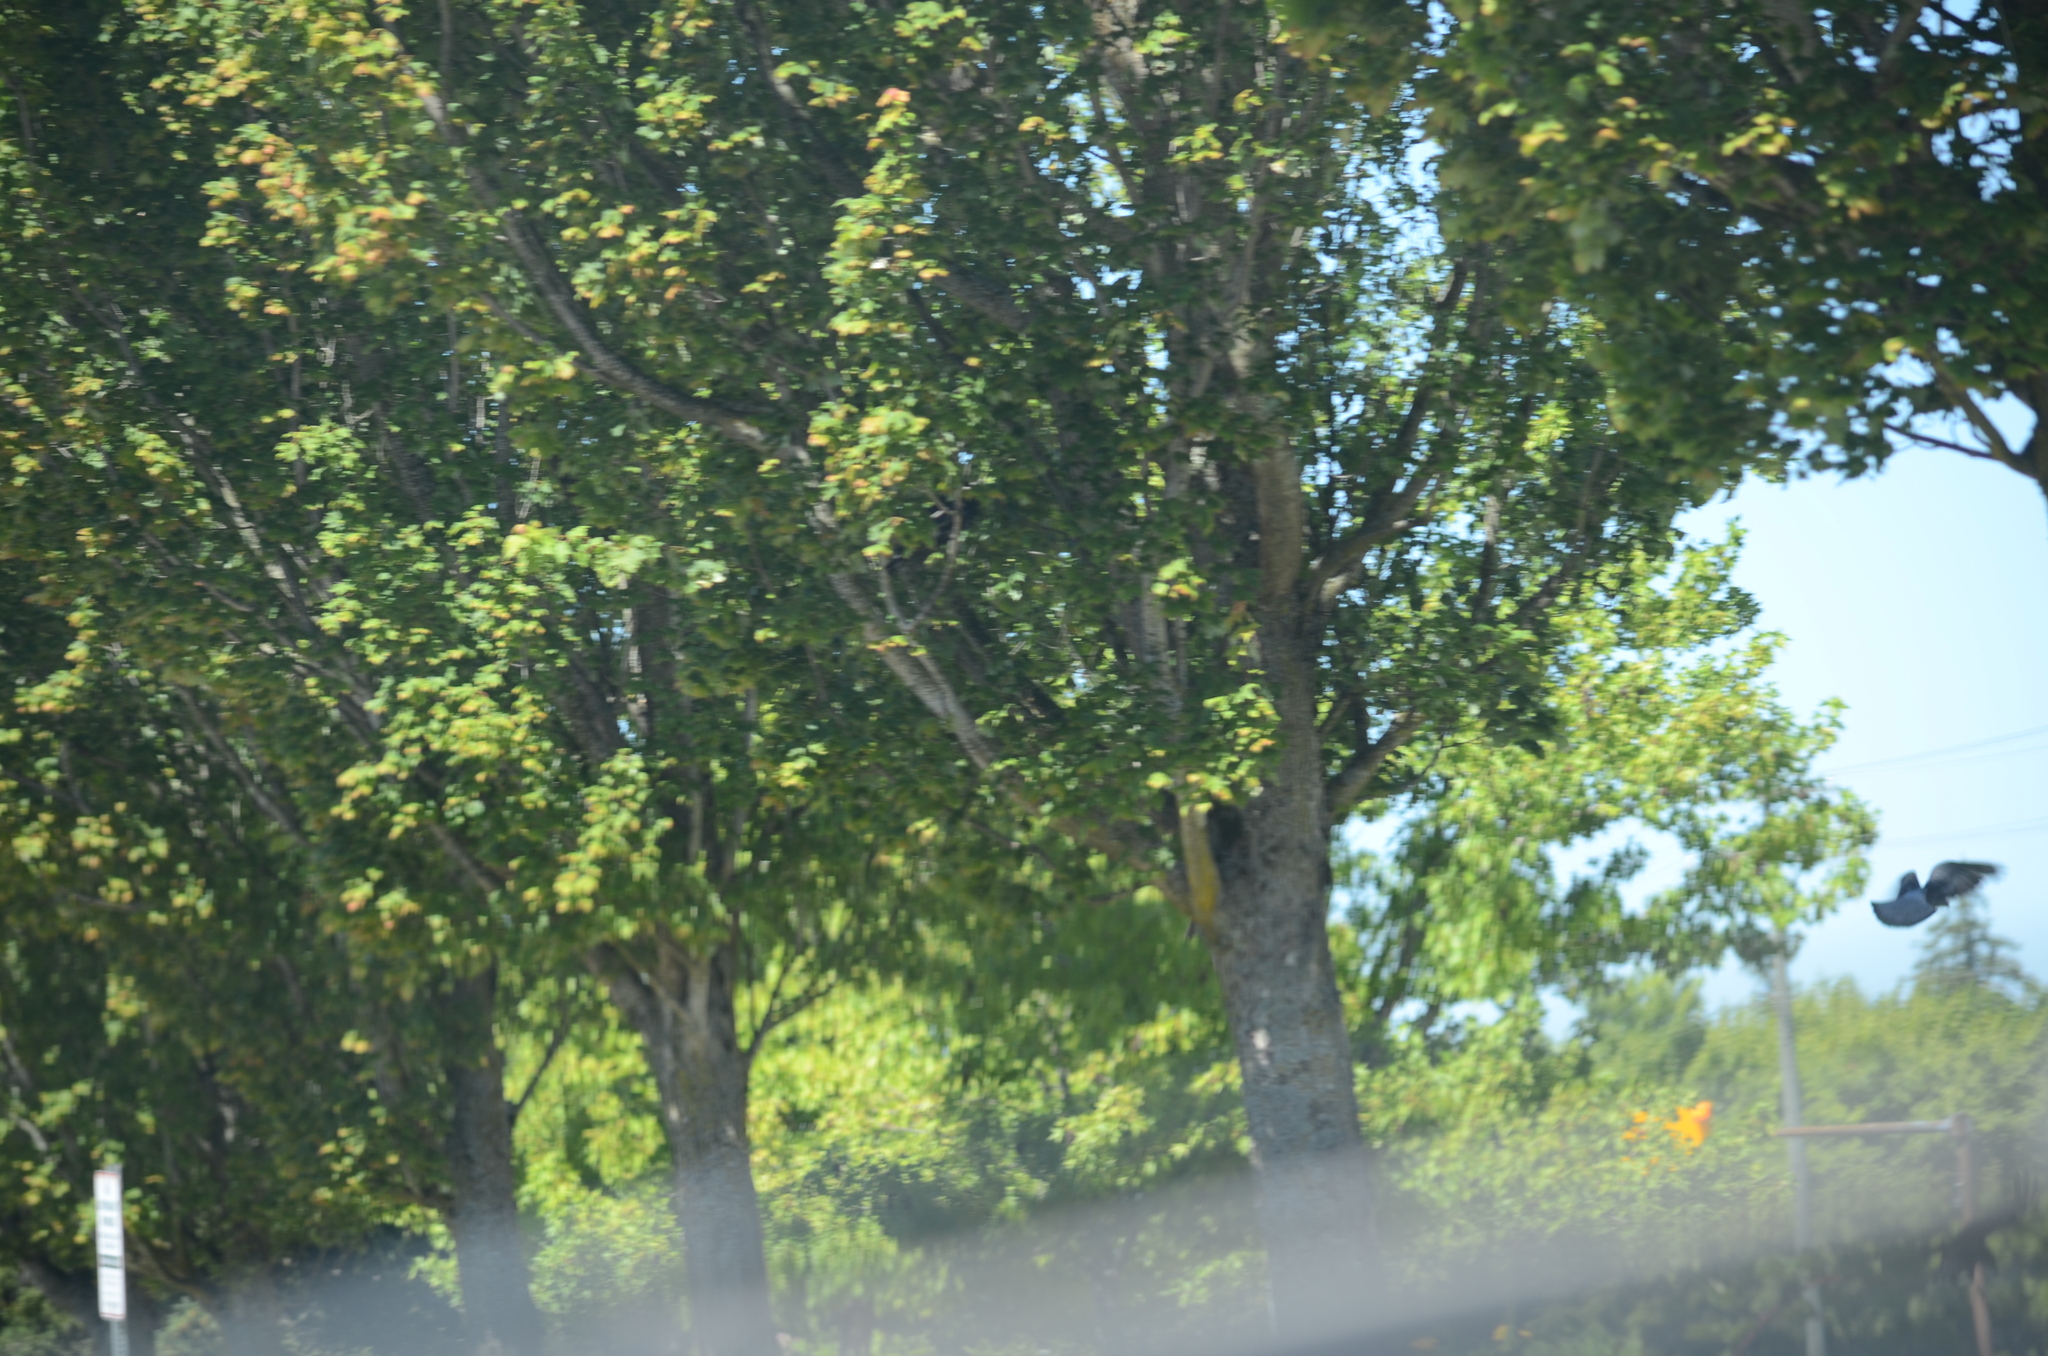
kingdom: Animalia
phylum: Chordata
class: Aves
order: Columbiformes
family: Columbidae
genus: Columba
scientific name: Columba livia
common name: Rock pigeon
